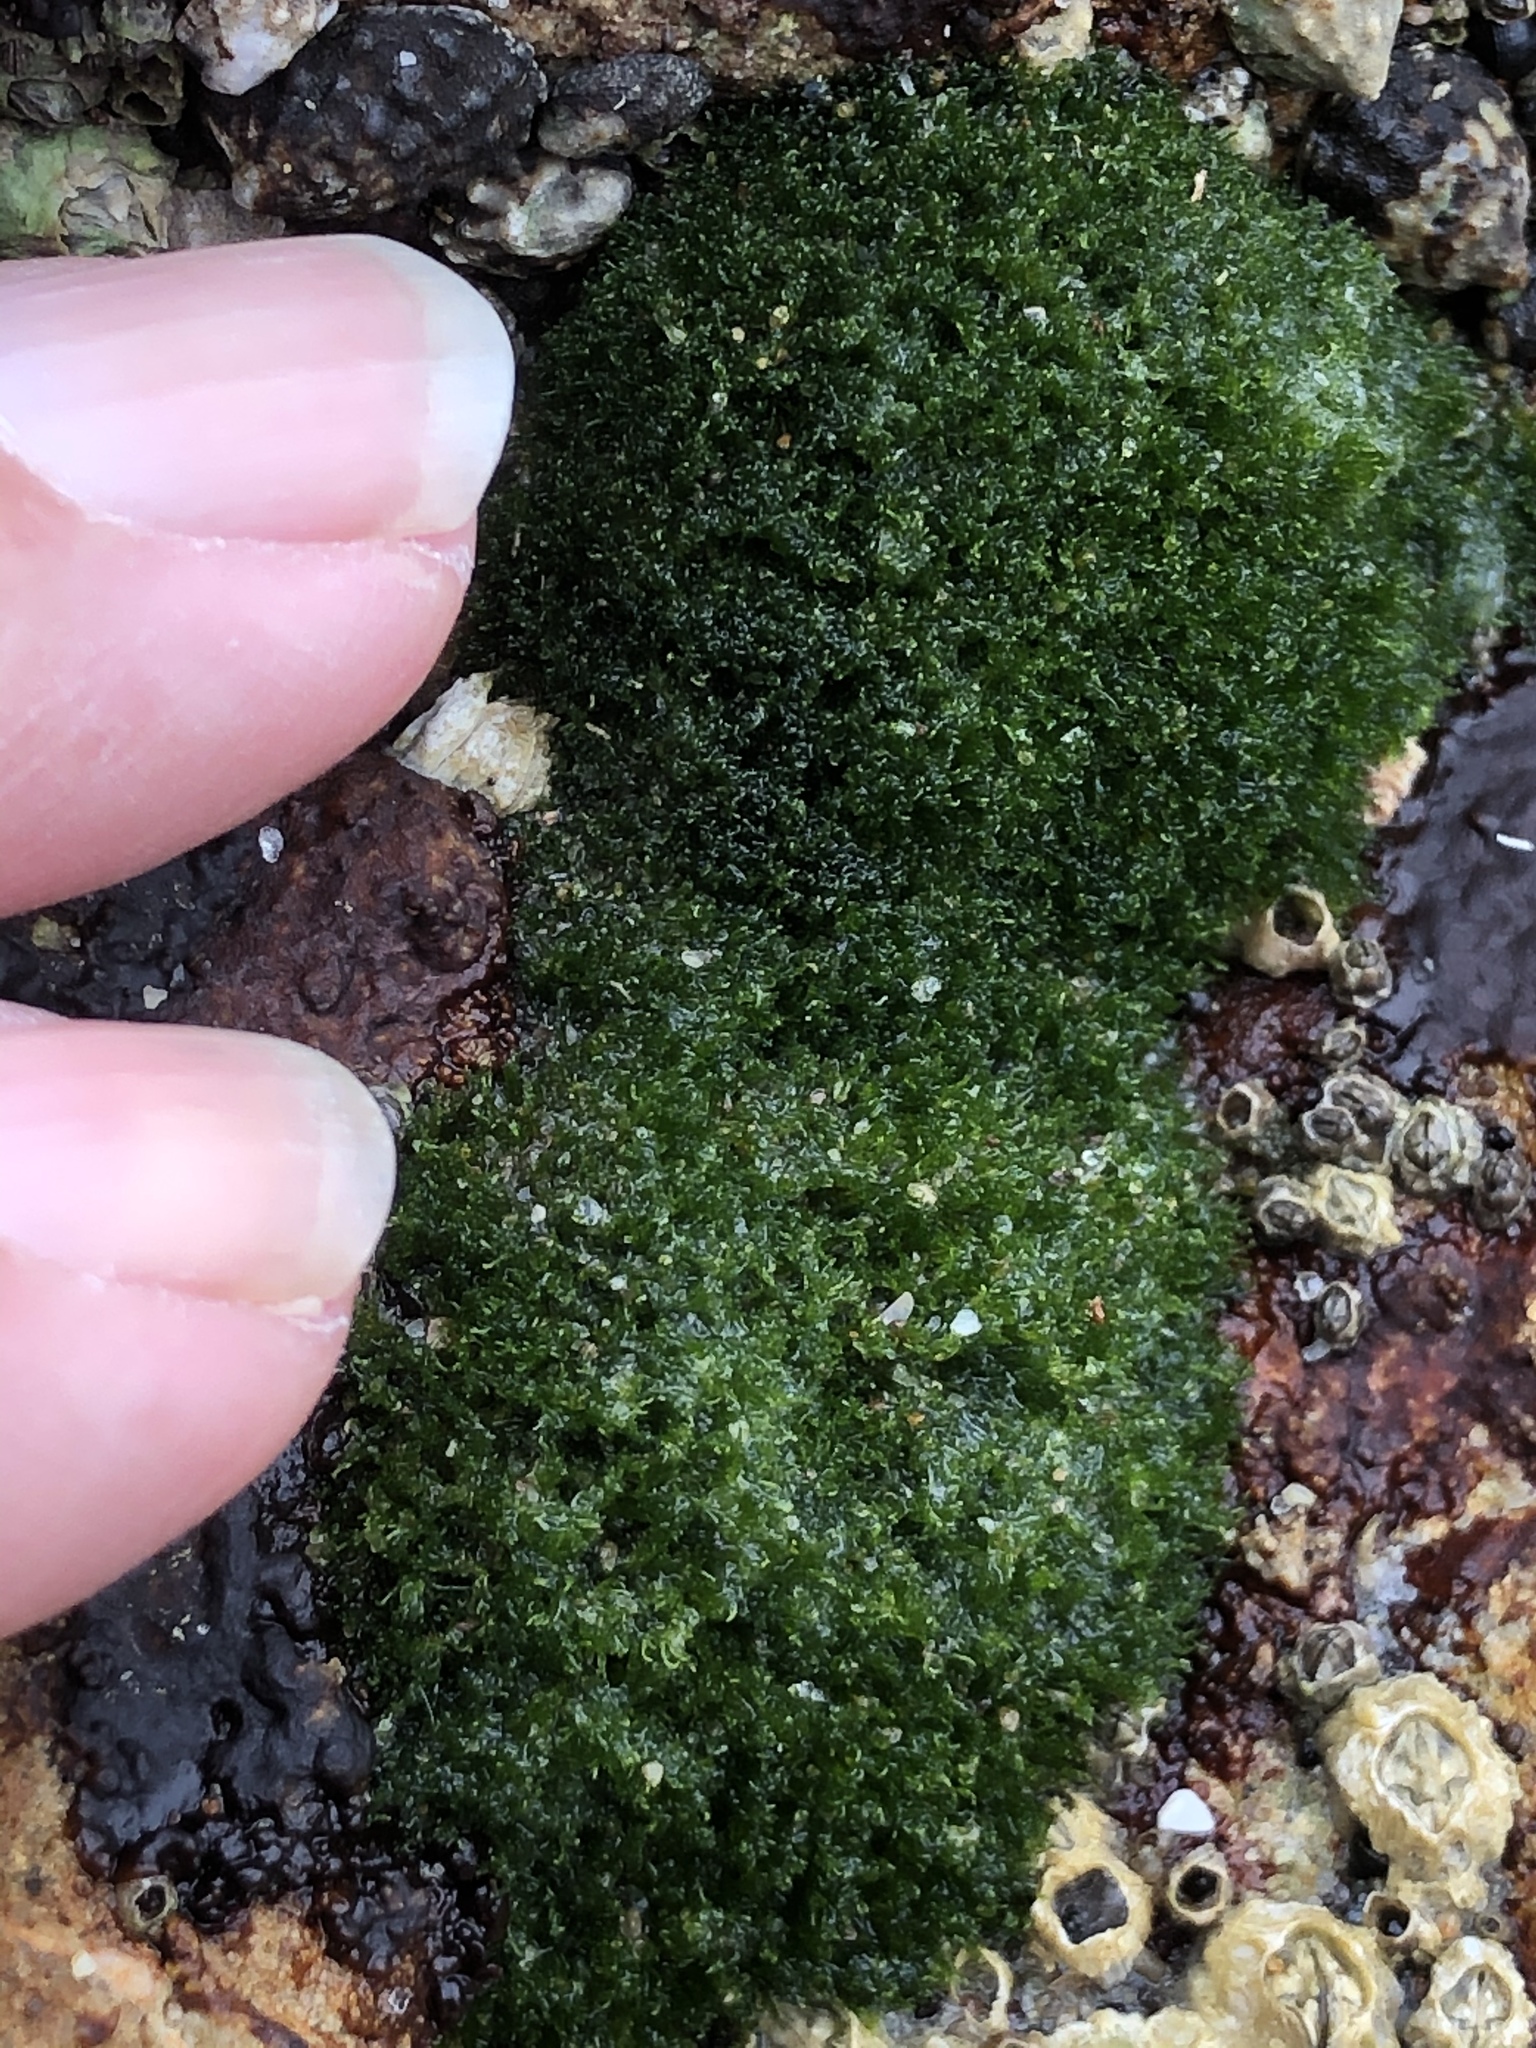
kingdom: Plantae
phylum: Chlorophyta
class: Ulvophyceae
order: Cladophorales
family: Cladophoraceae
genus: Cladophora
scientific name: Cladophora columbiana
